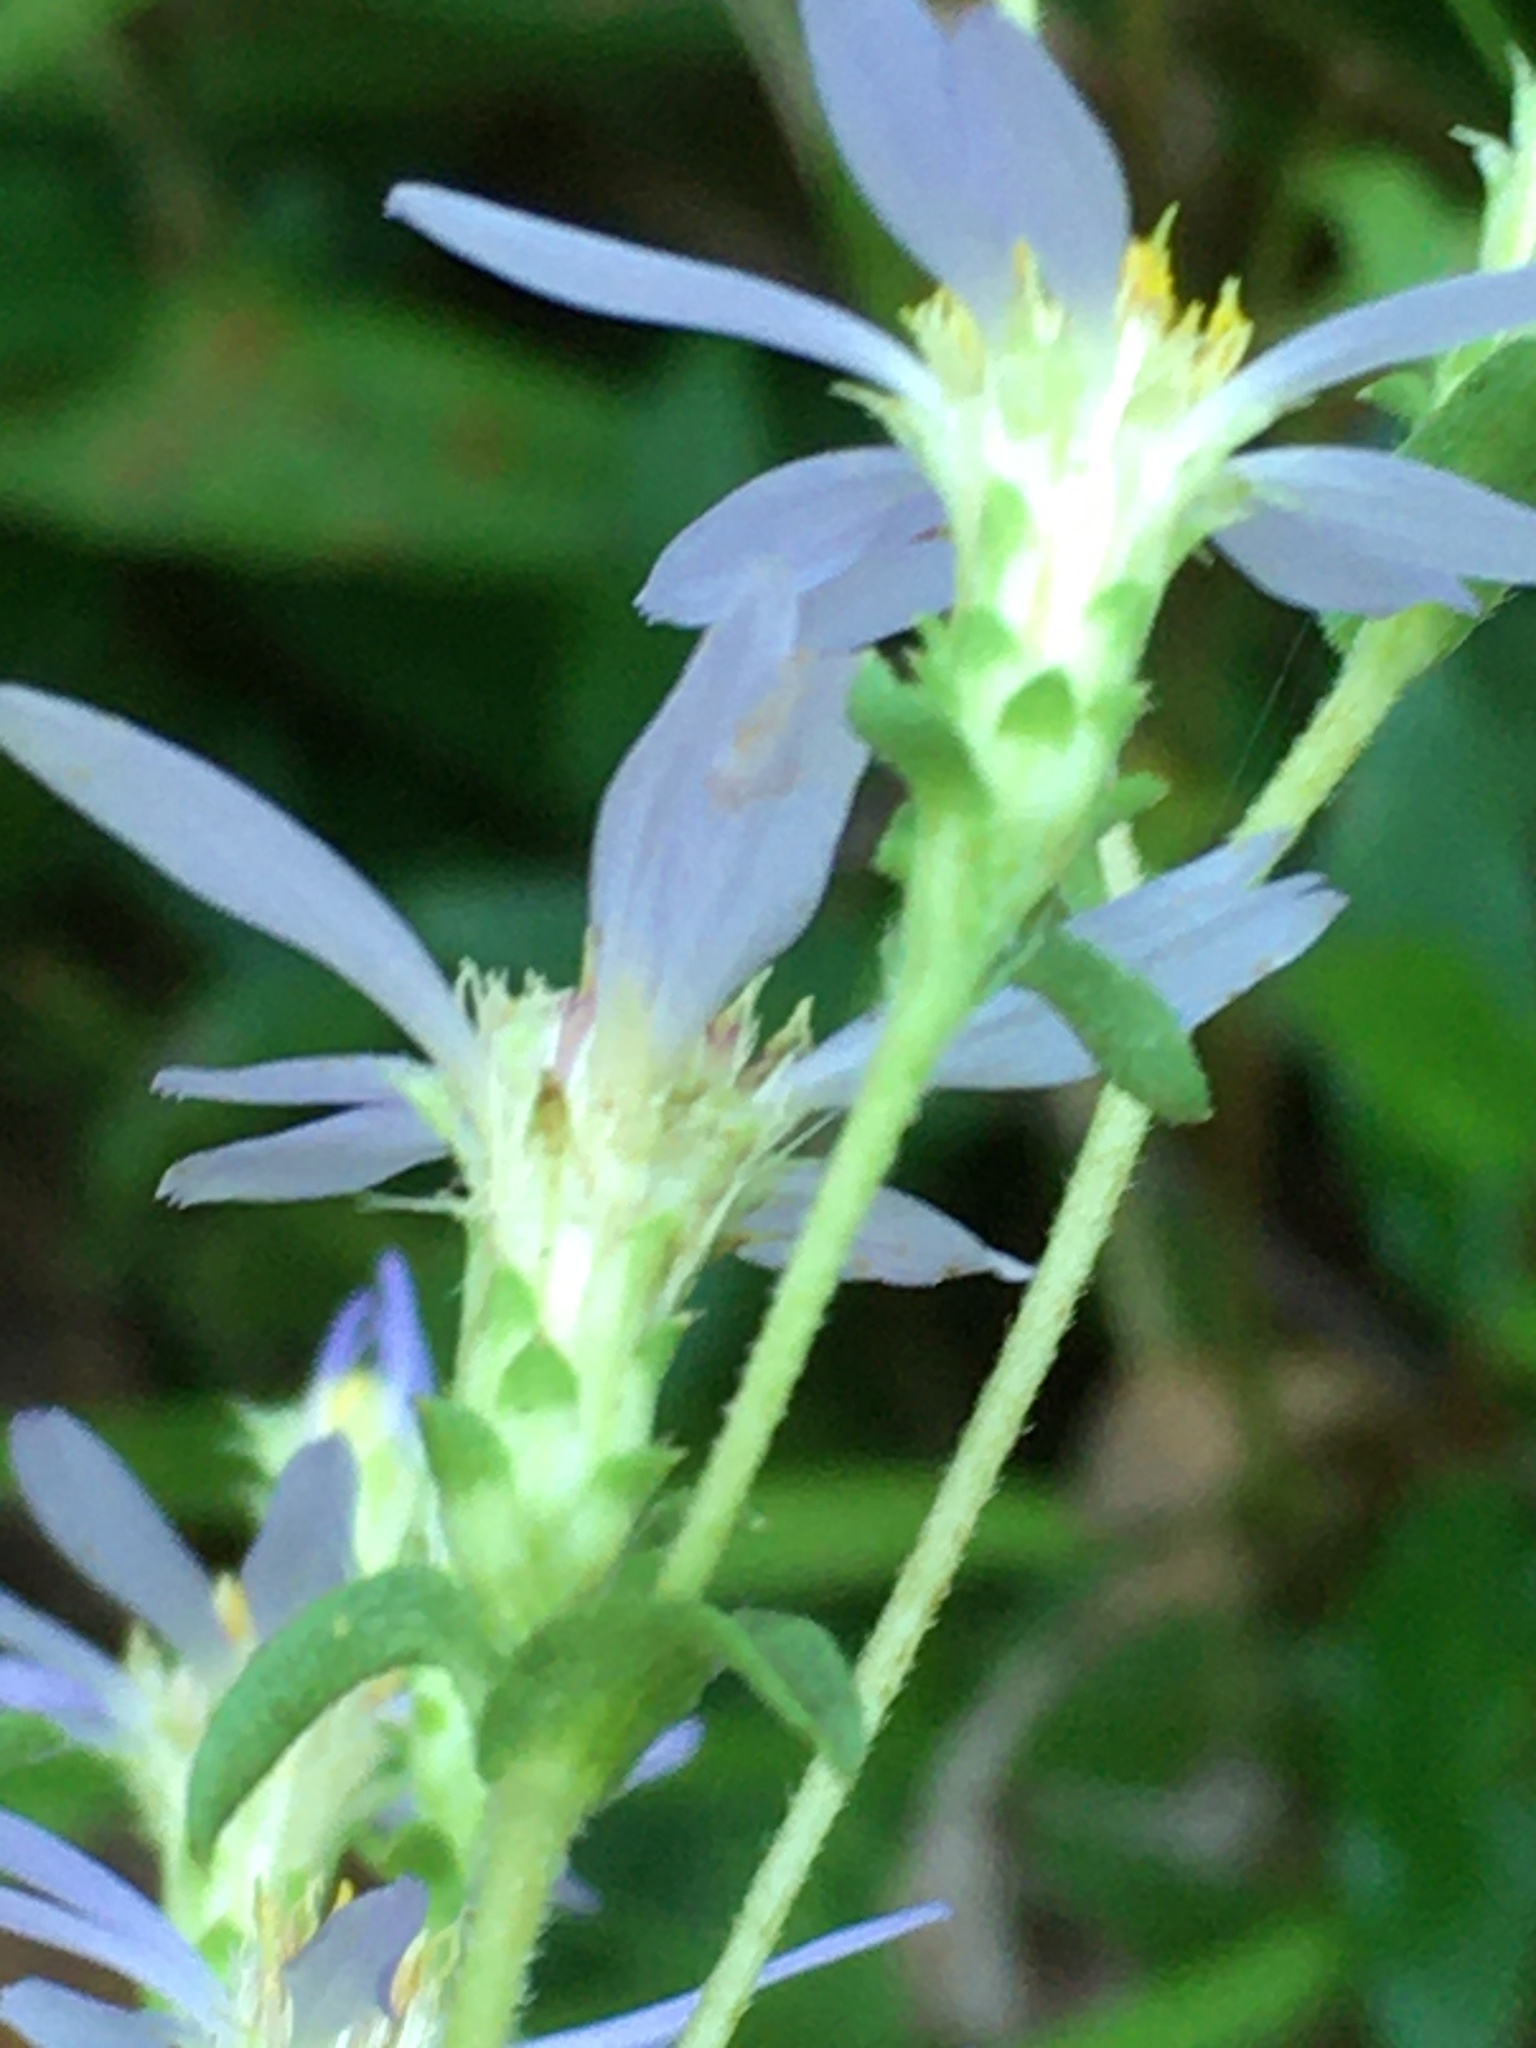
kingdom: Plantae
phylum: Tracheophyta
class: Magnoliopsida
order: Asterales
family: Asteraceae
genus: Eurybia
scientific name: Eurybia compacta
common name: Slender aster
